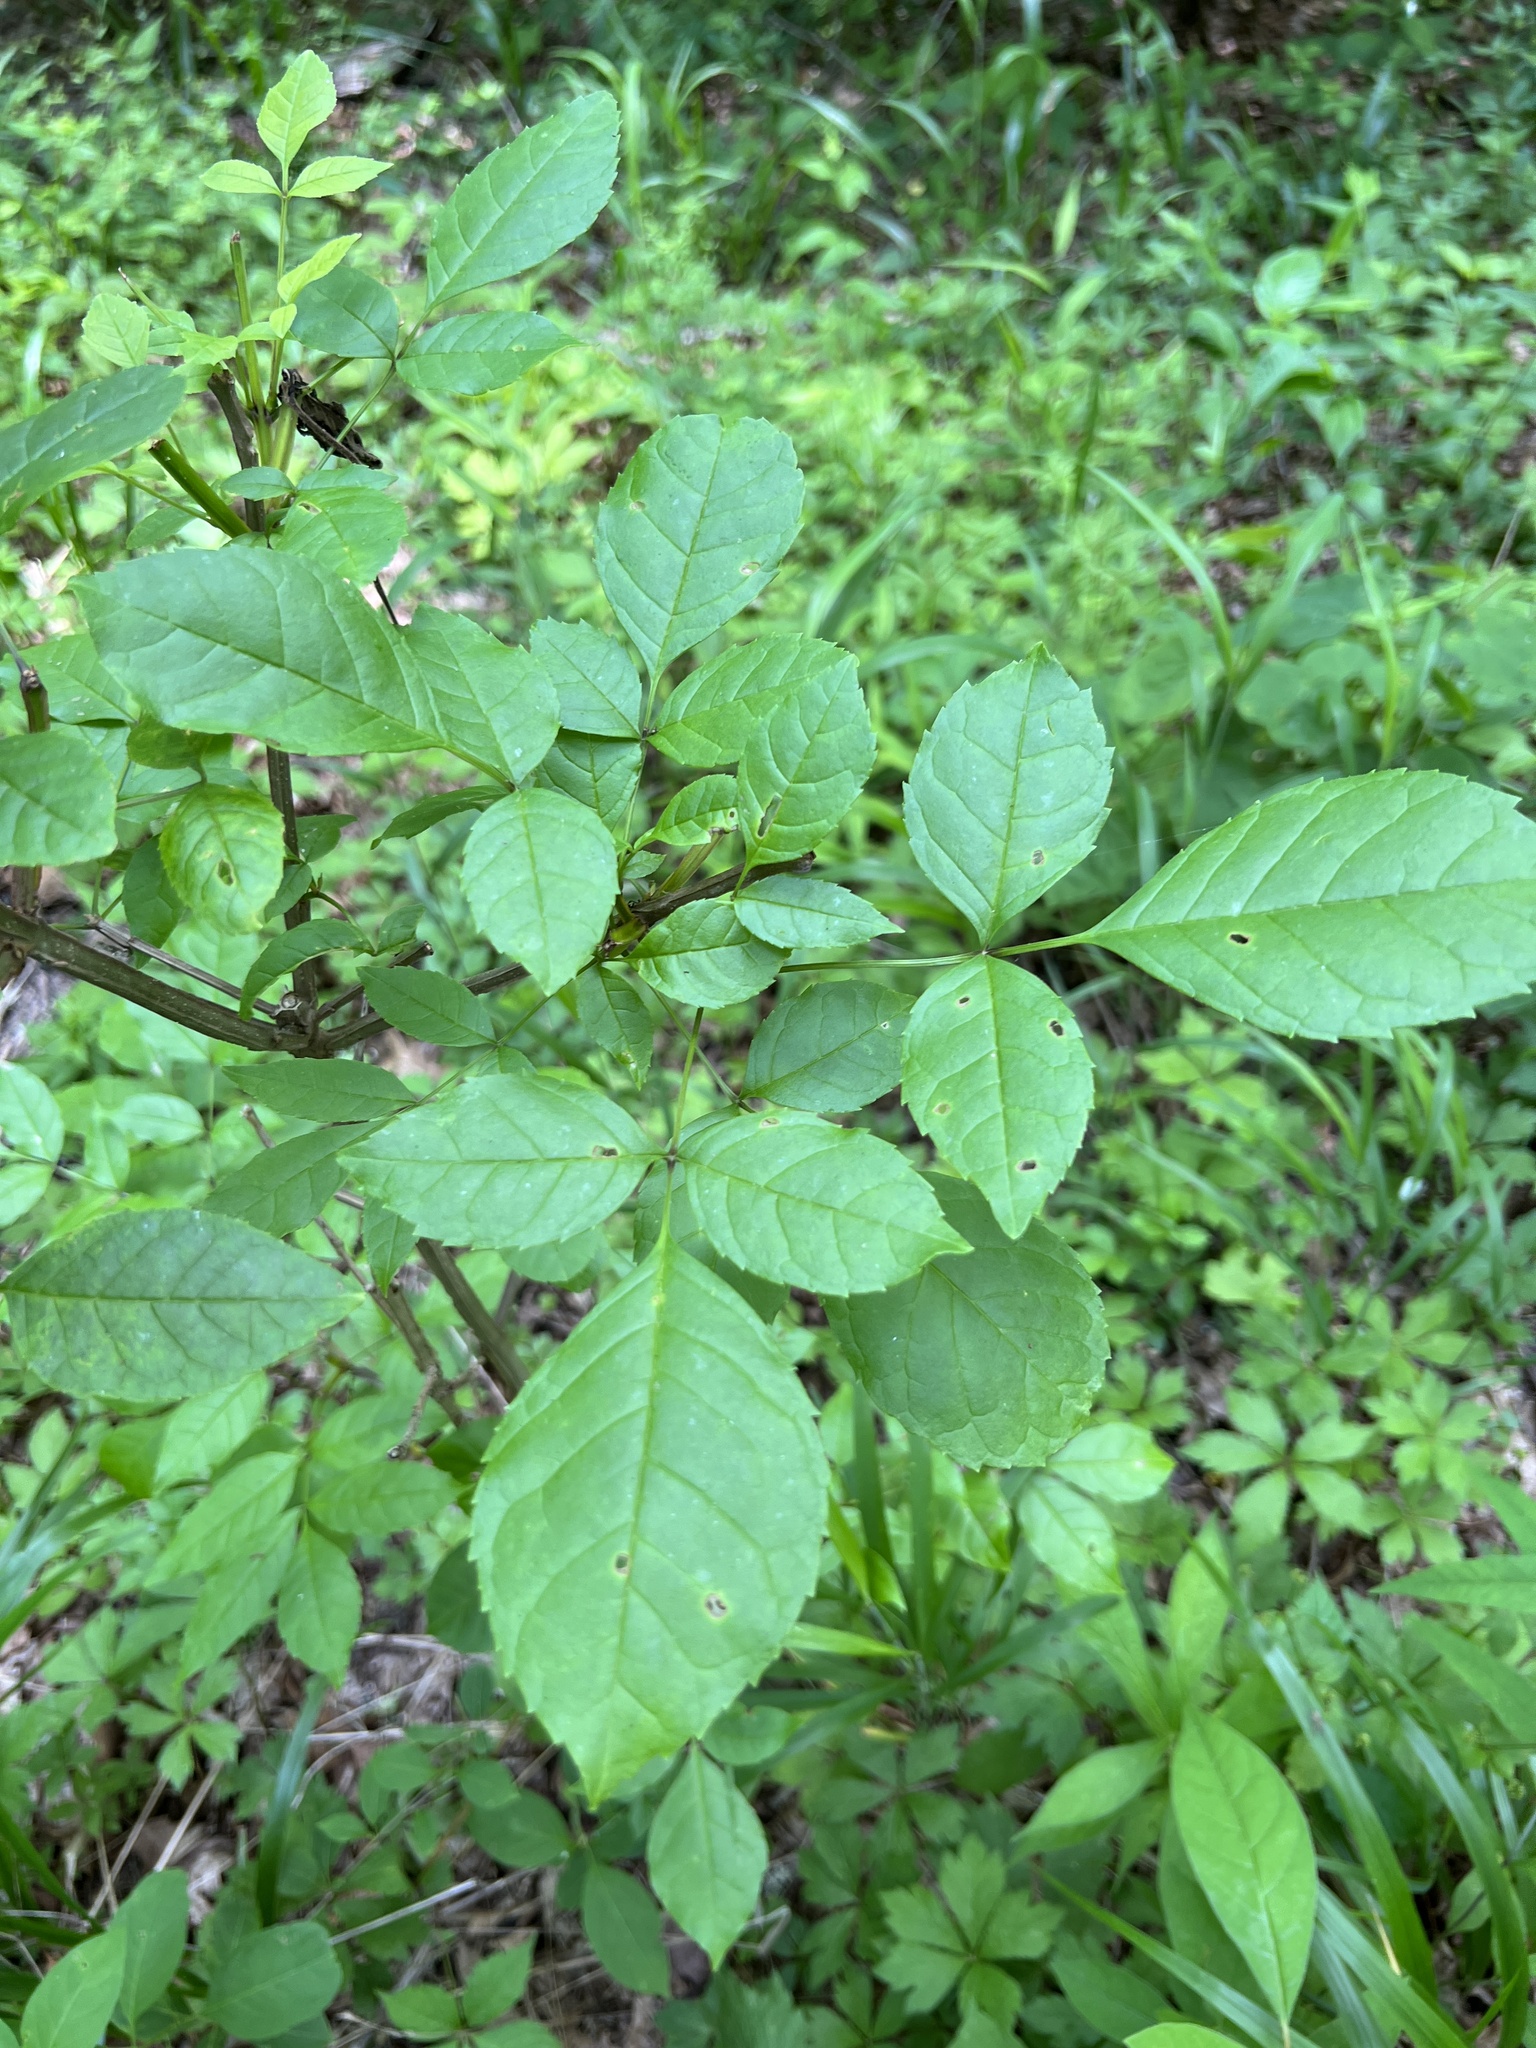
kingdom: Plantae
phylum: Tracheophyta
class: Magnoliopsida
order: Lamiales
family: Oleaceae
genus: Fraxinus
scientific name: Fraxinus quadrangulata
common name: Blue ash
